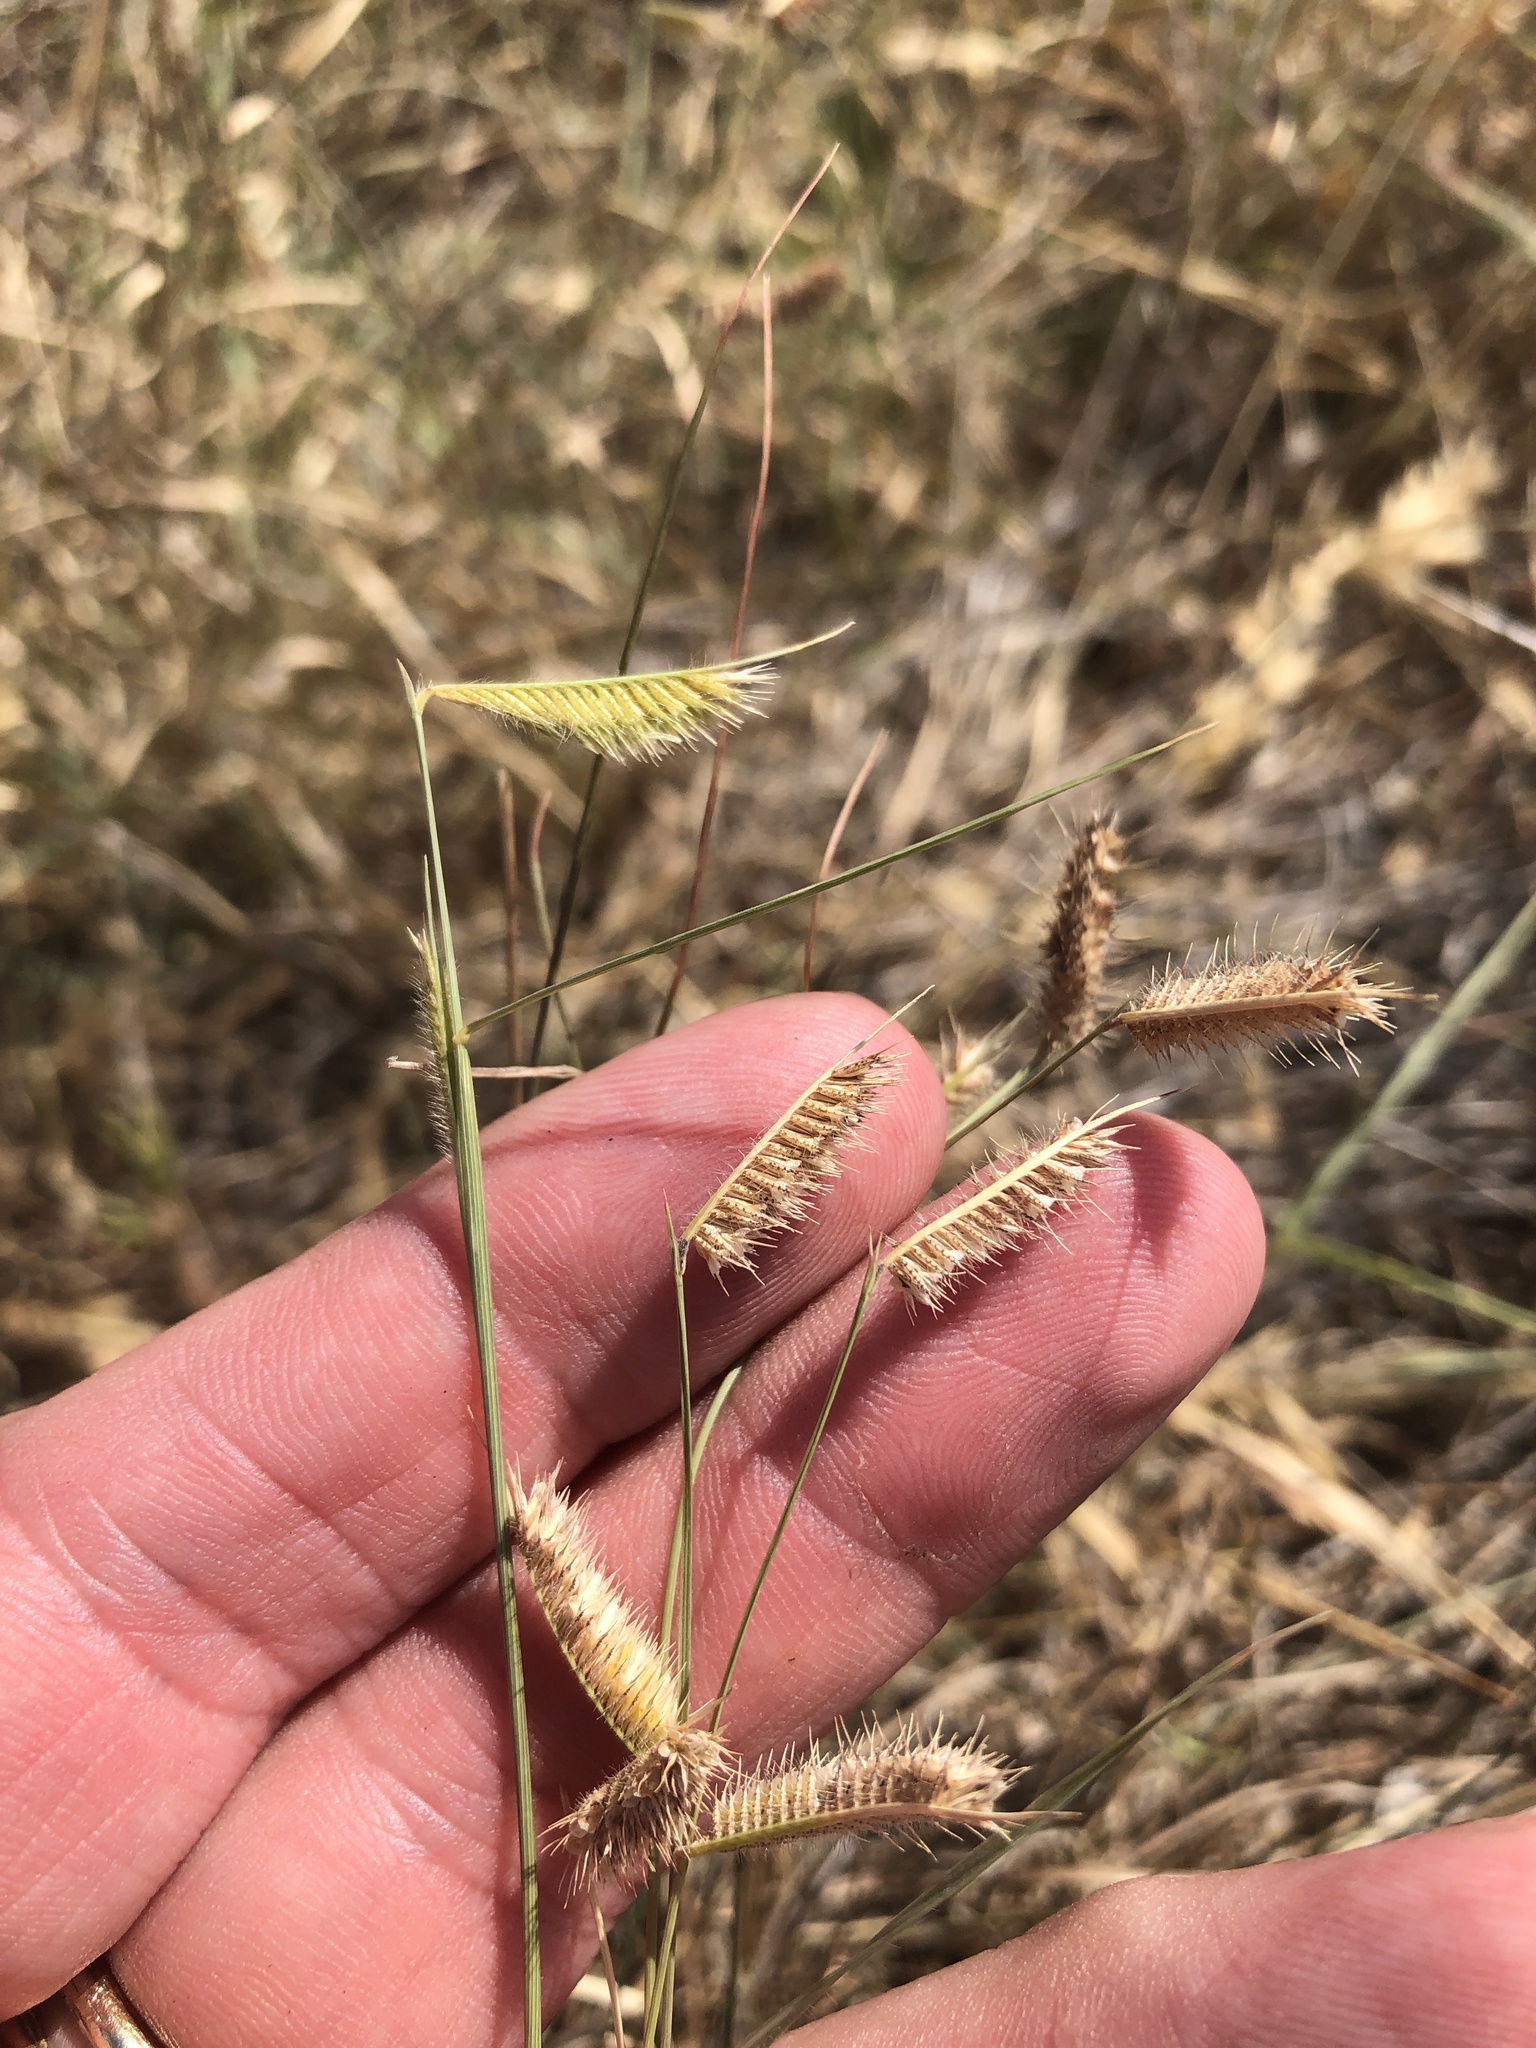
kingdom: Plantae
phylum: Tracheophyta
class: Liliopsida
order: Poales
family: Poaceae
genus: Bouteloua
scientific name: Bouteloua hirsuta
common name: Hairy grama
